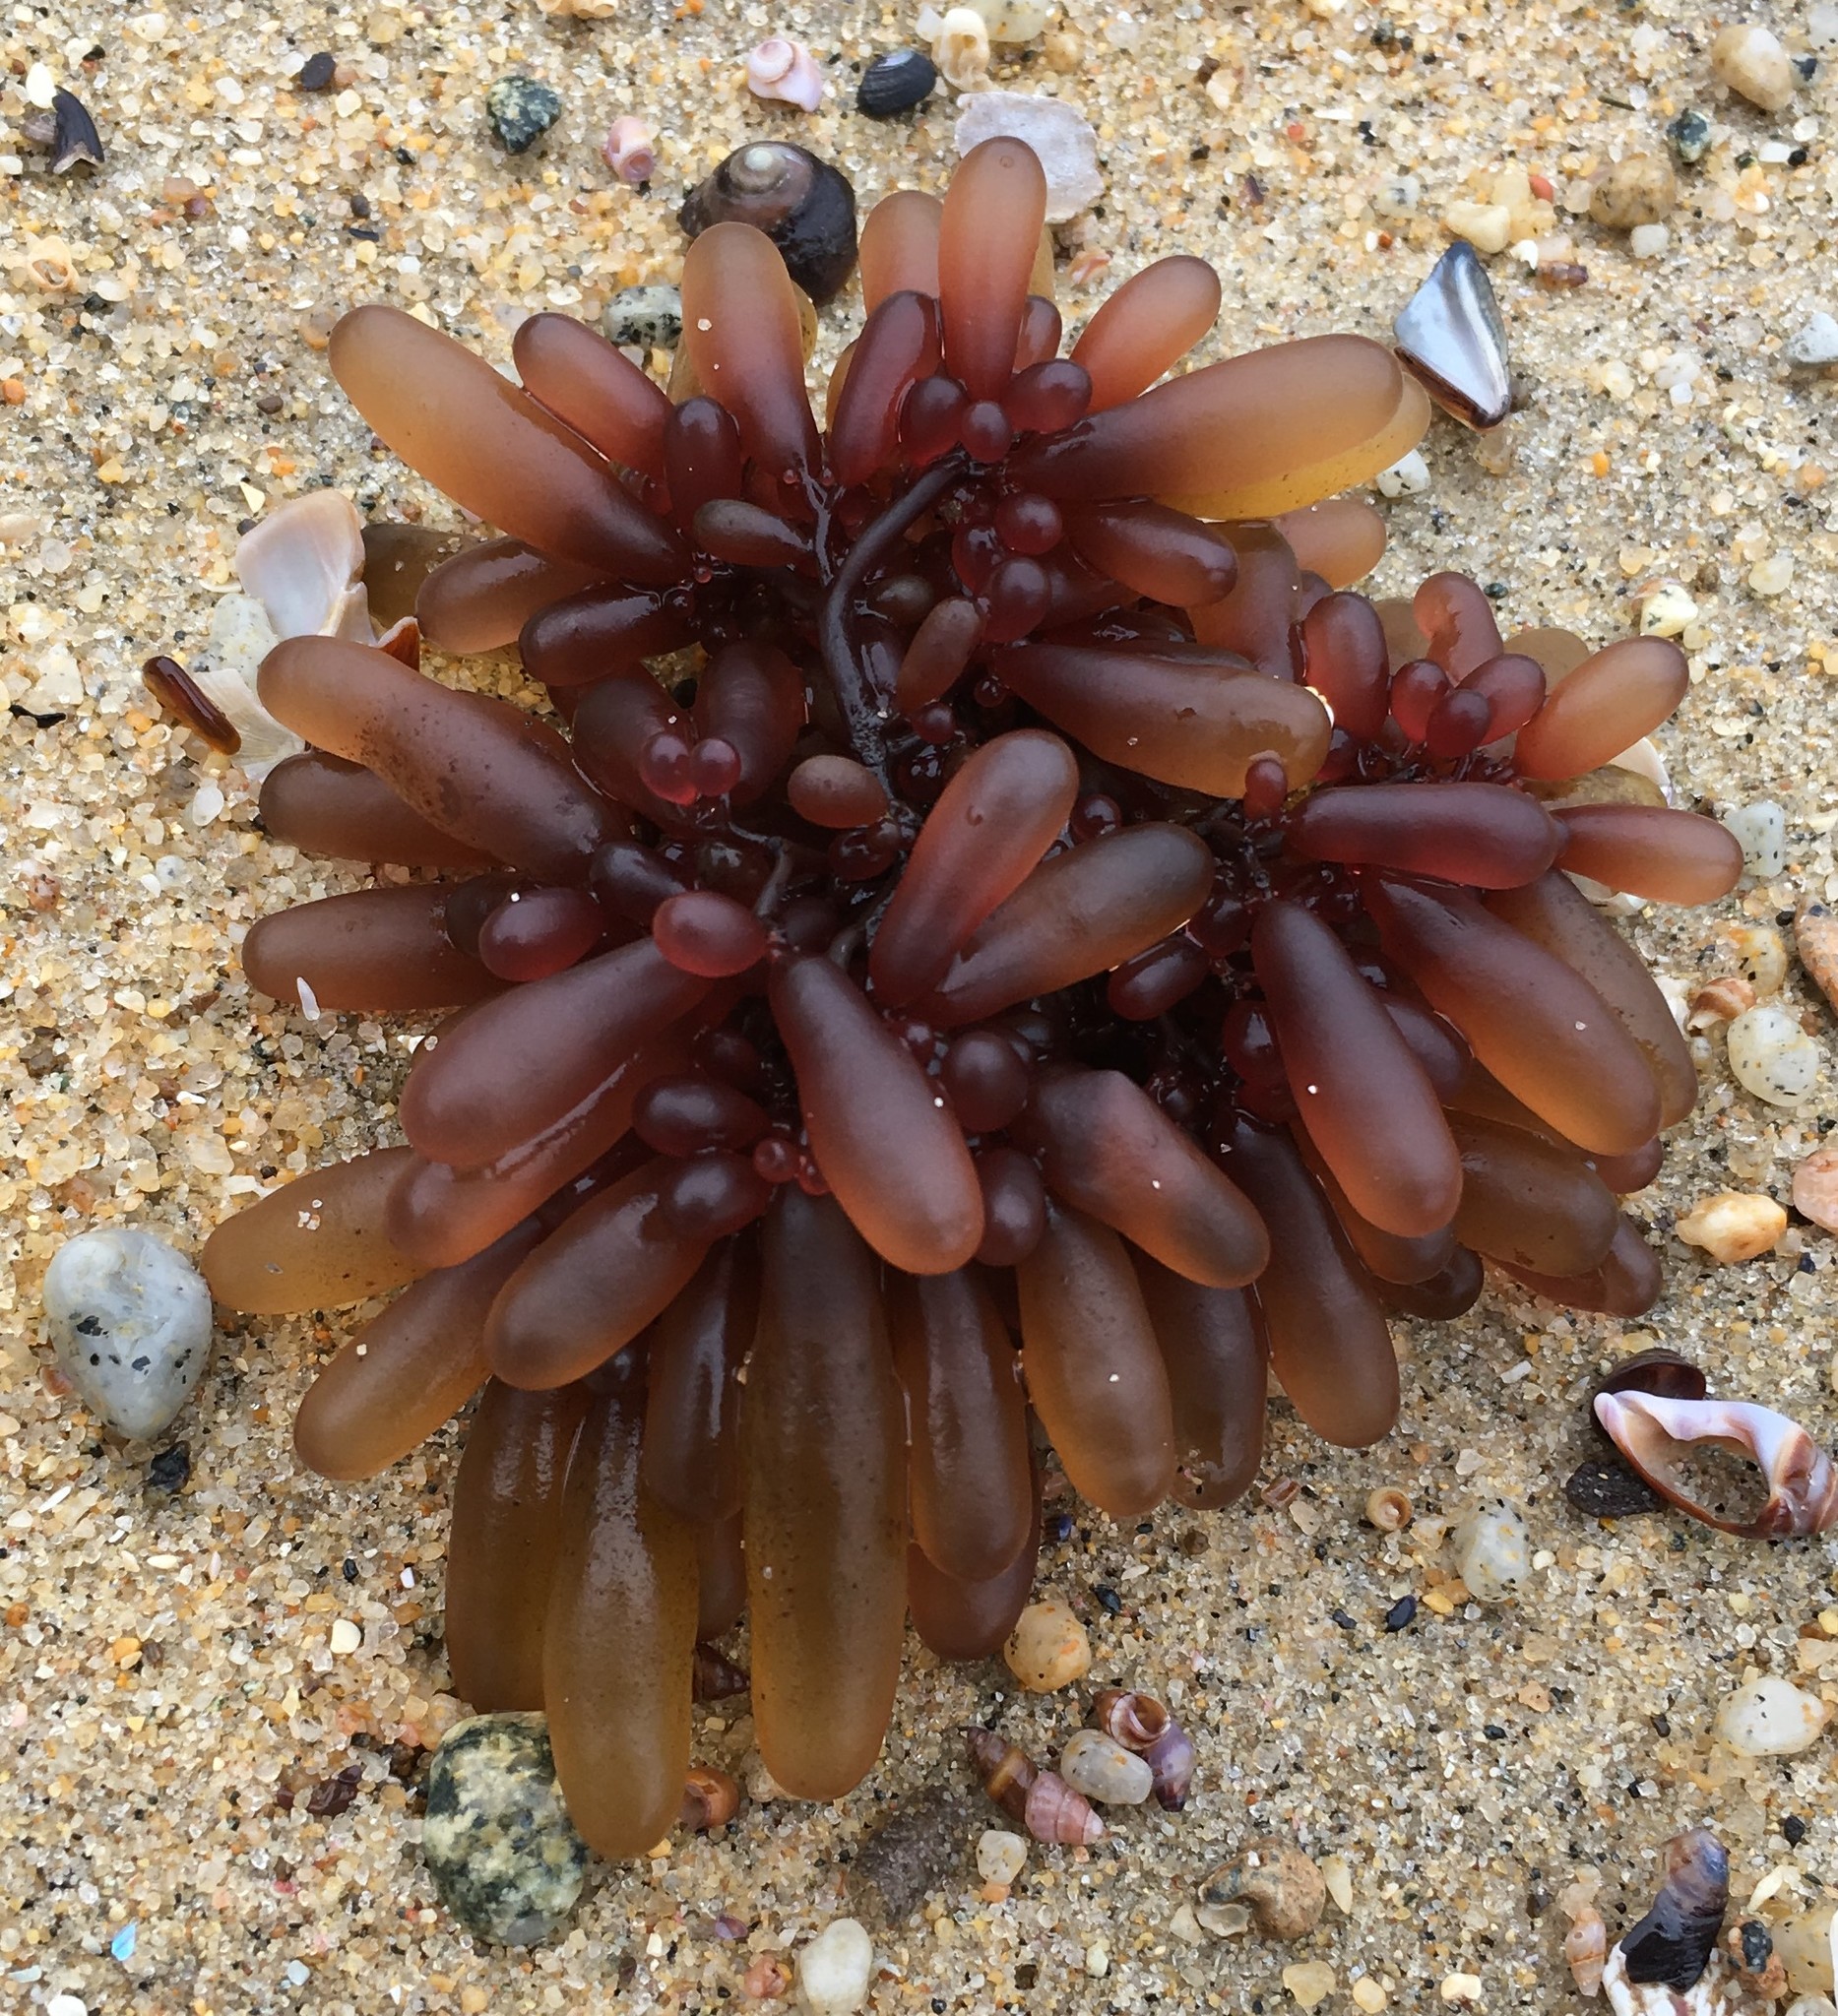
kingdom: Plantae
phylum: Rhodophyta
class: Florideophyceae
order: Rhodymeniales
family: Rhodymeniaceae
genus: Botryocladia
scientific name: Botryocladia pseudodichotoma
